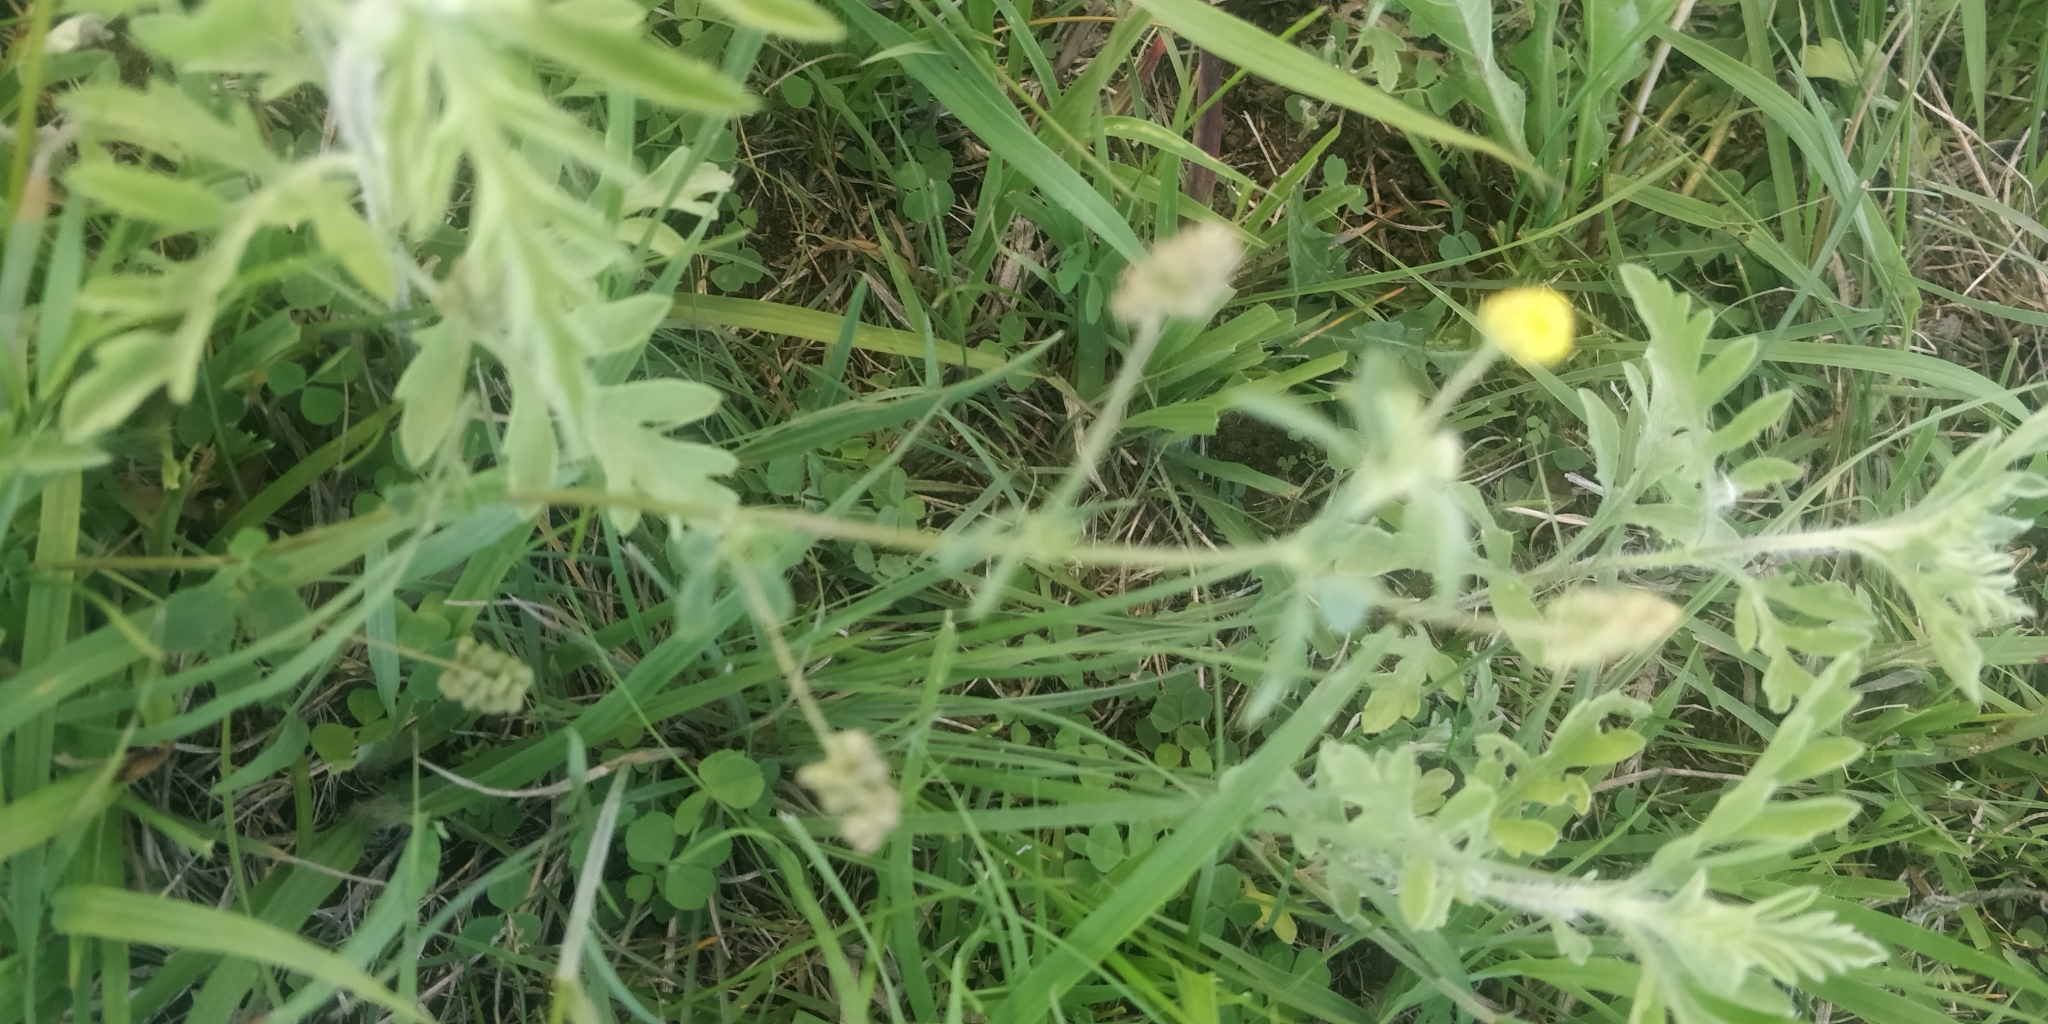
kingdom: Plantae
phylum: Tracheophyta
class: Magnoliopsida
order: Fabales
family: Fabaceae
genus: Medicago
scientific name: Medicago lupulina
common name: Black medick
